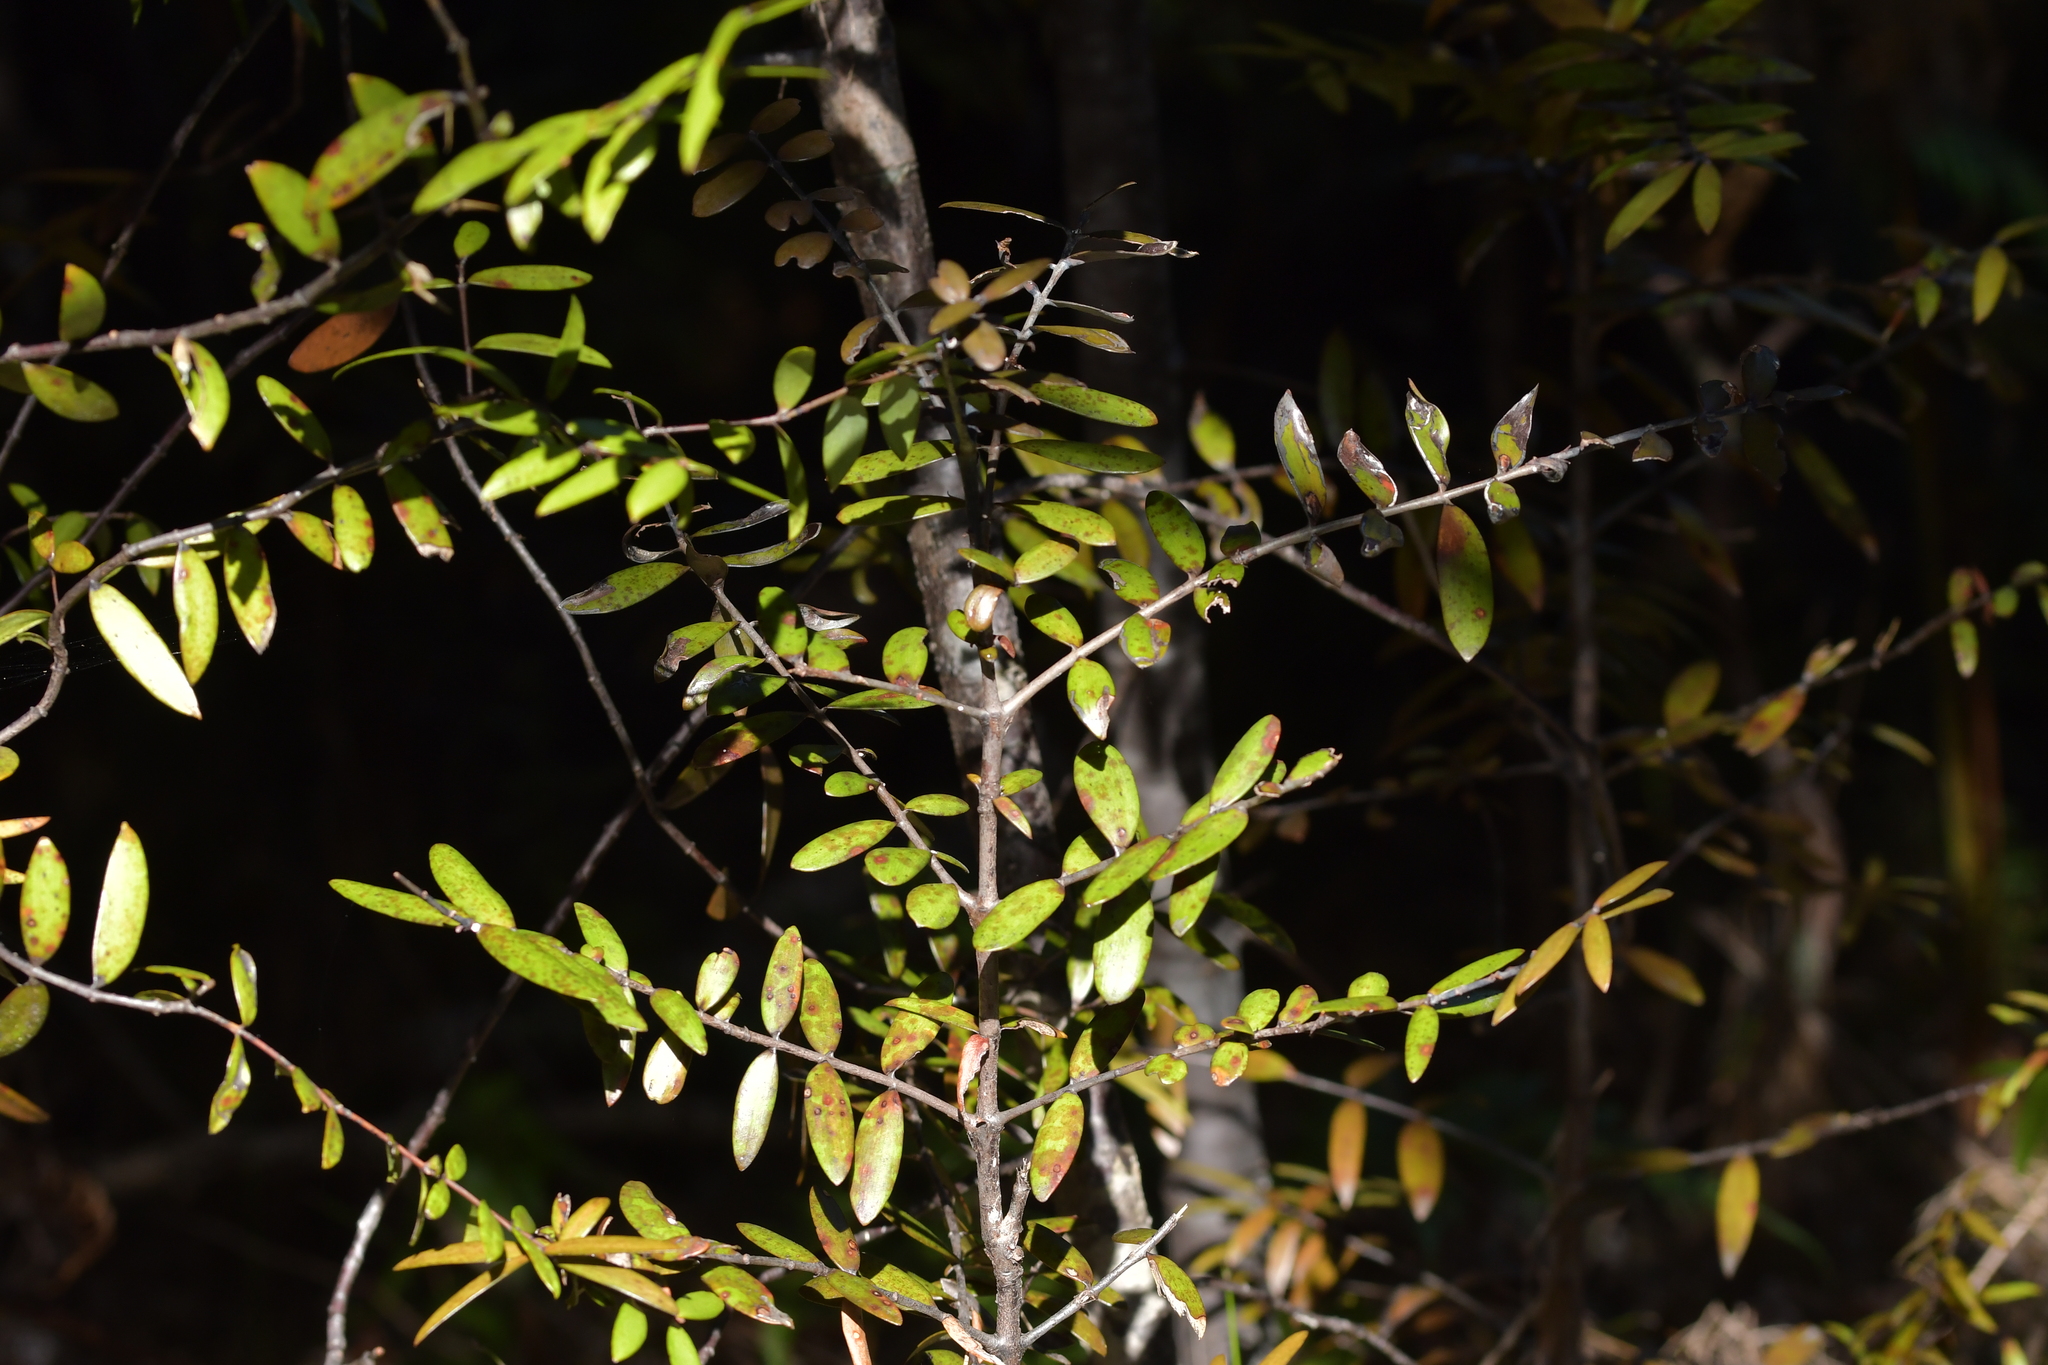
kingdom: Plantae
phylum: Tracheophyta
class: Pinopsida
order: Pinales
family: Araucariaceae
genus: Agathis
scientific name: Agathis australis
